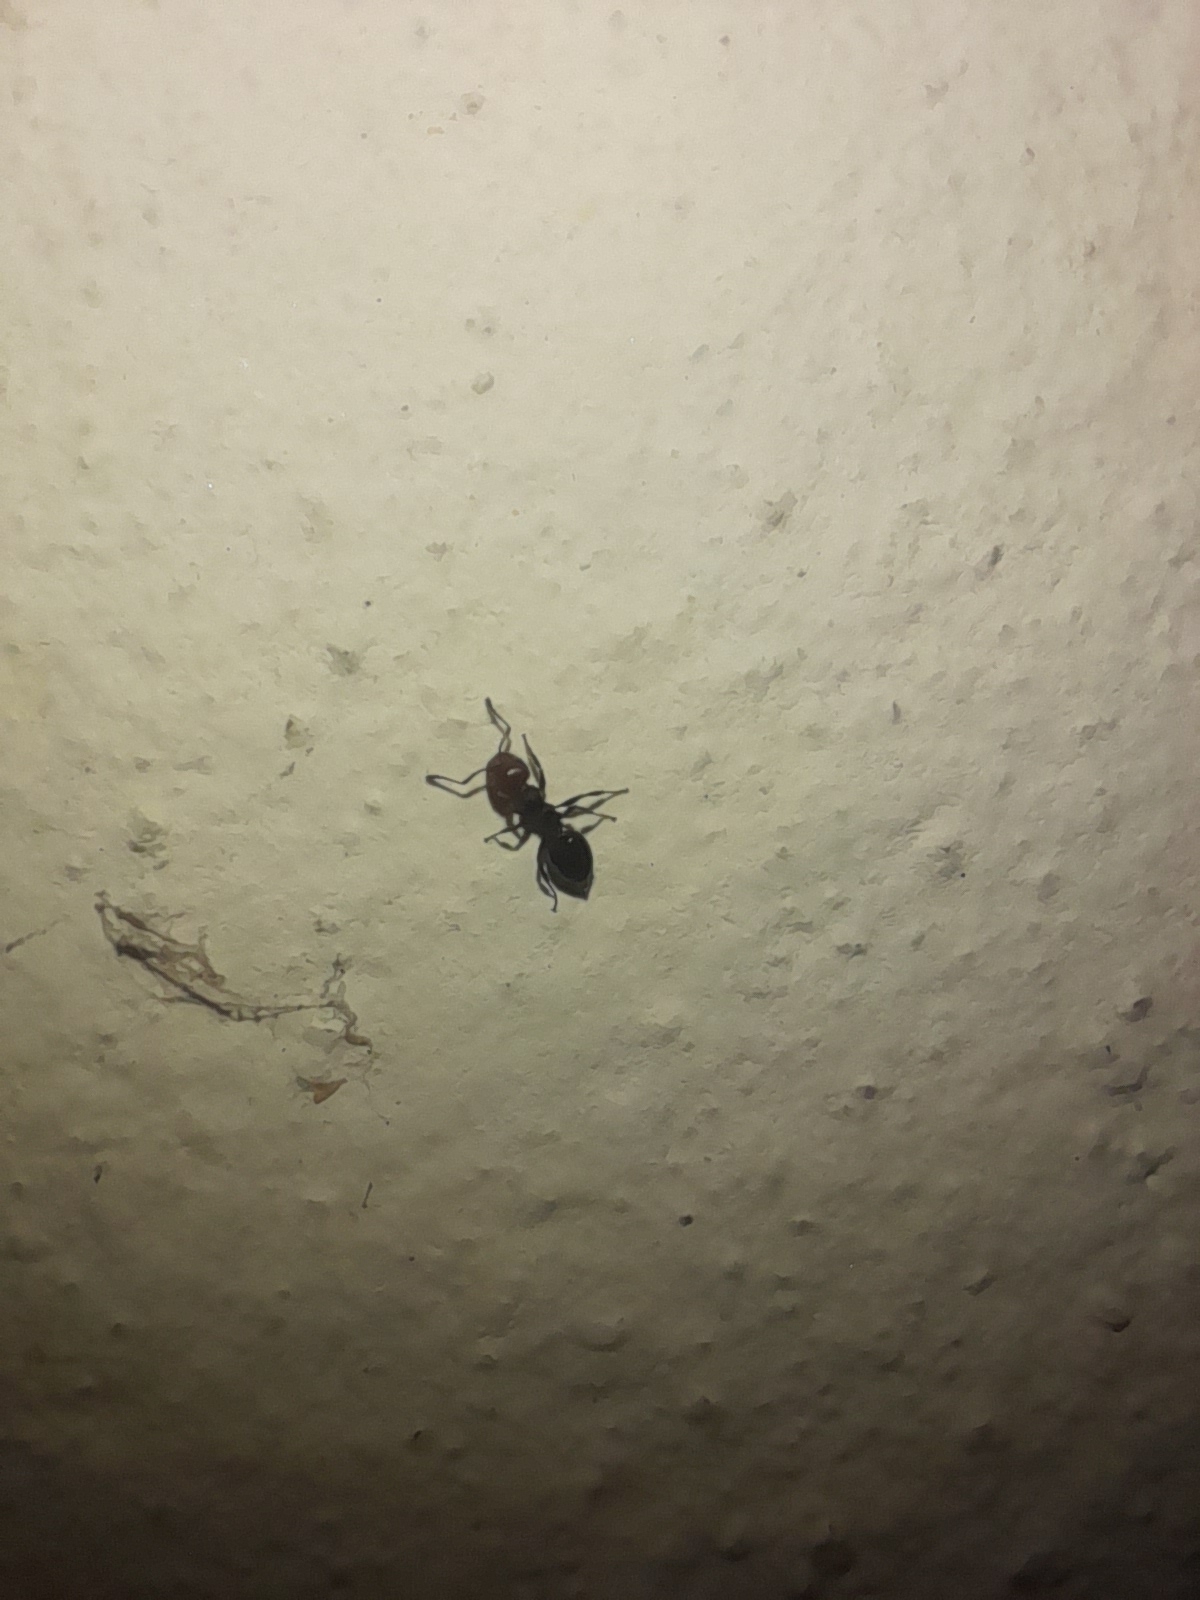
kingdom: Animalia
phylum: Arthropoda
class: Insecta
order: Hymenoptera
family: Formicidae
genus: Crematogaster
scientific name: Crematogaster scutellaris
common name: Fourmi du liège
